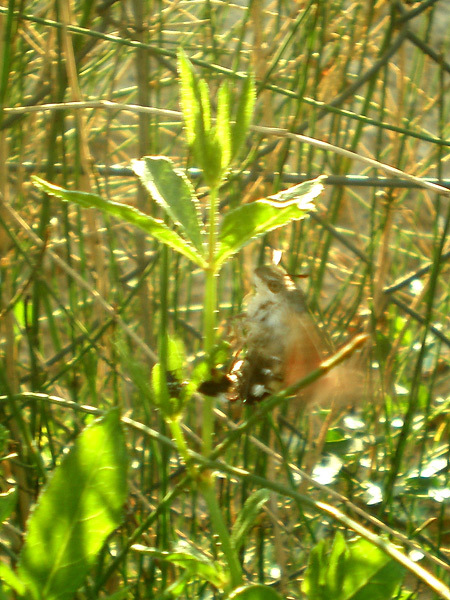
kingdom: Animalia
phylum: Arthropoda
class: Insecta
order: Lepidoptera
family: Sphingidae
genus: Macroglossum
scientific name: Macroglossum stellatarum
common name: Humming-bird hawk-moth
